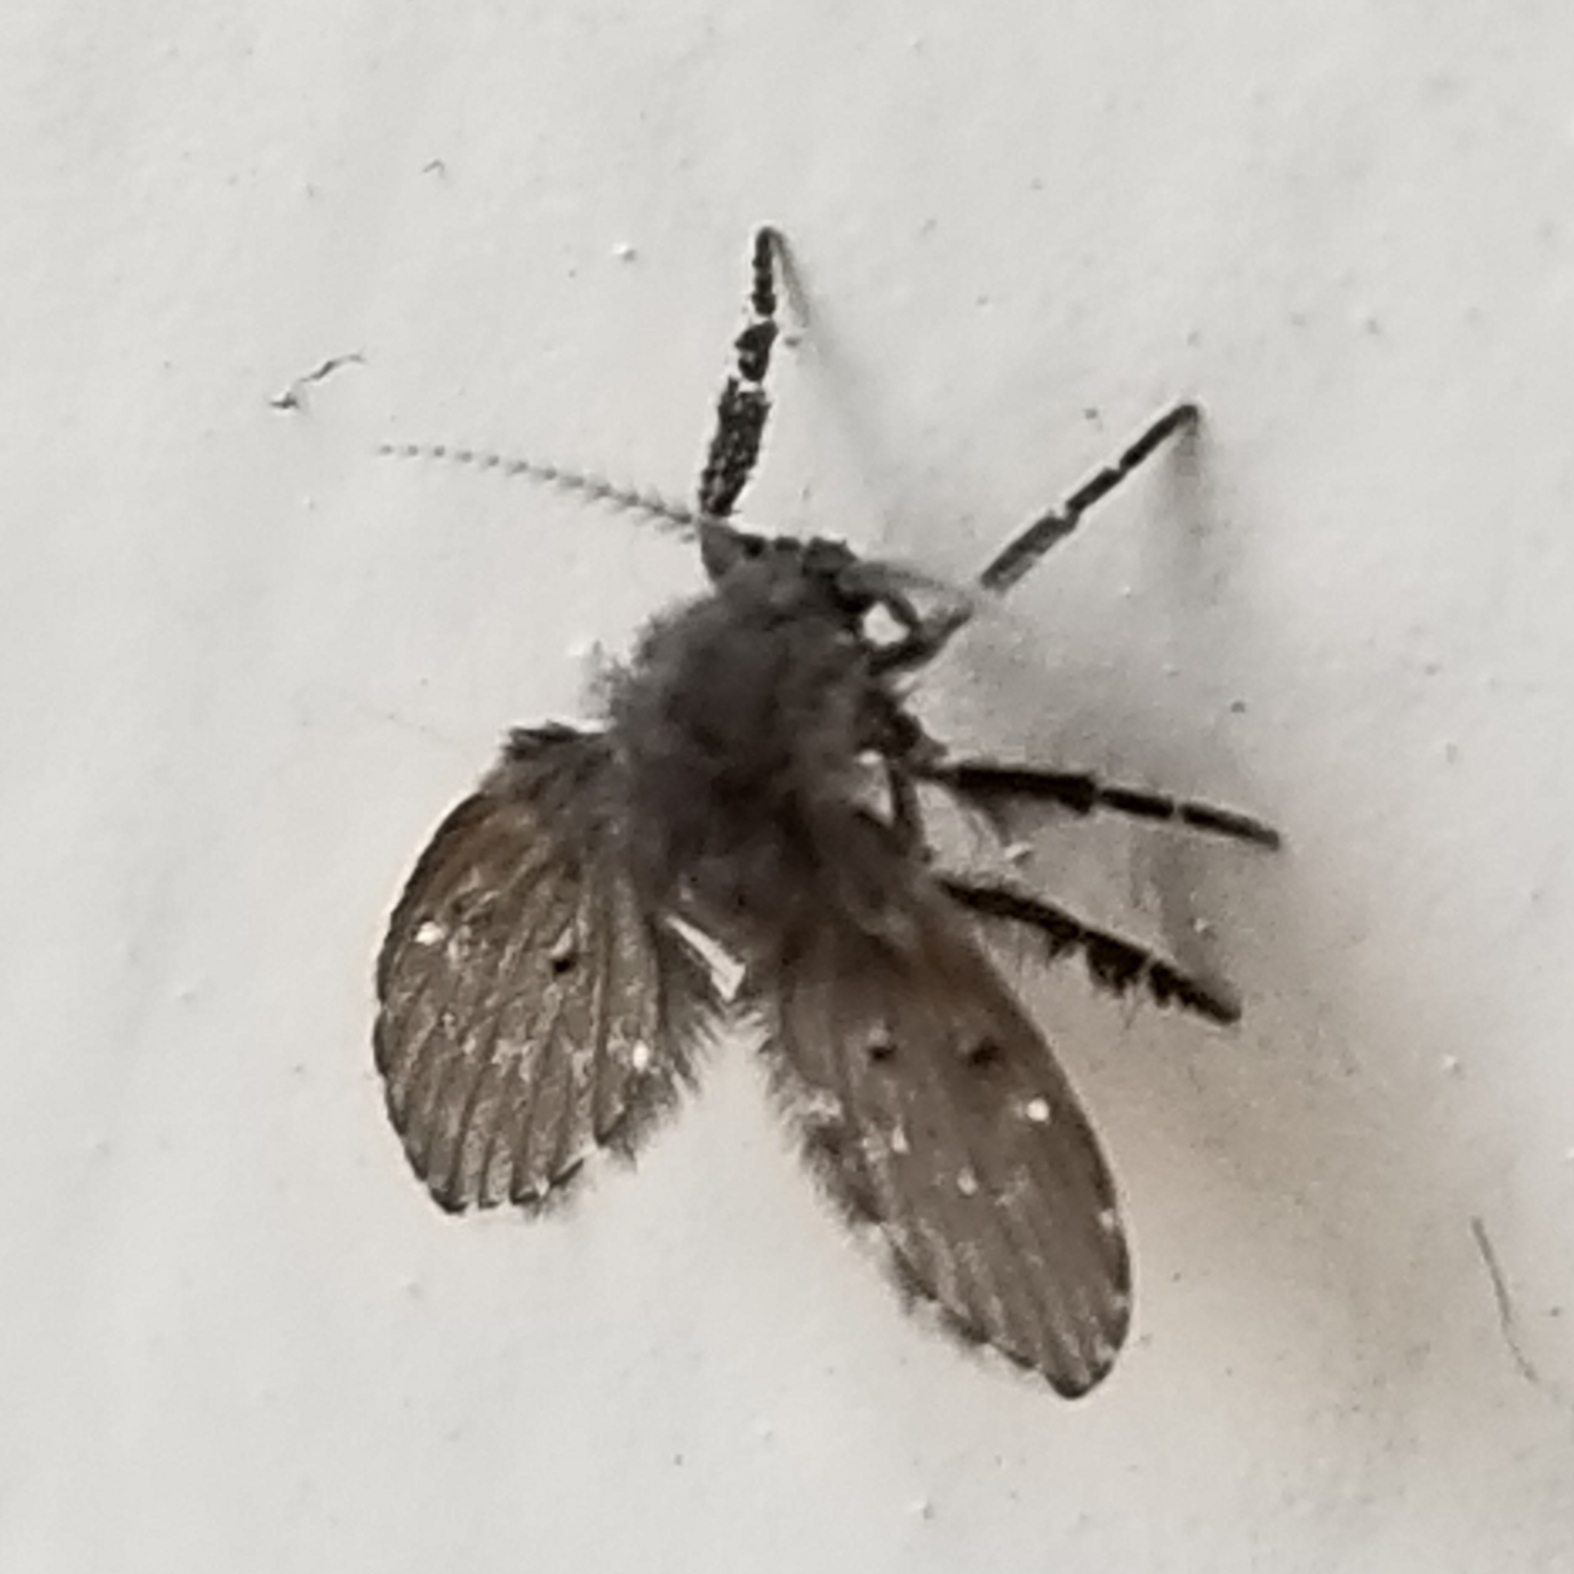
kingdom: Animalia
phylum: Arthropoda
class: Insecta
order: Diptera
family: Psychodidae
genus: Clogmia
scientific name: Clogmia albipunctatus
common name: White-spotted moth fly
